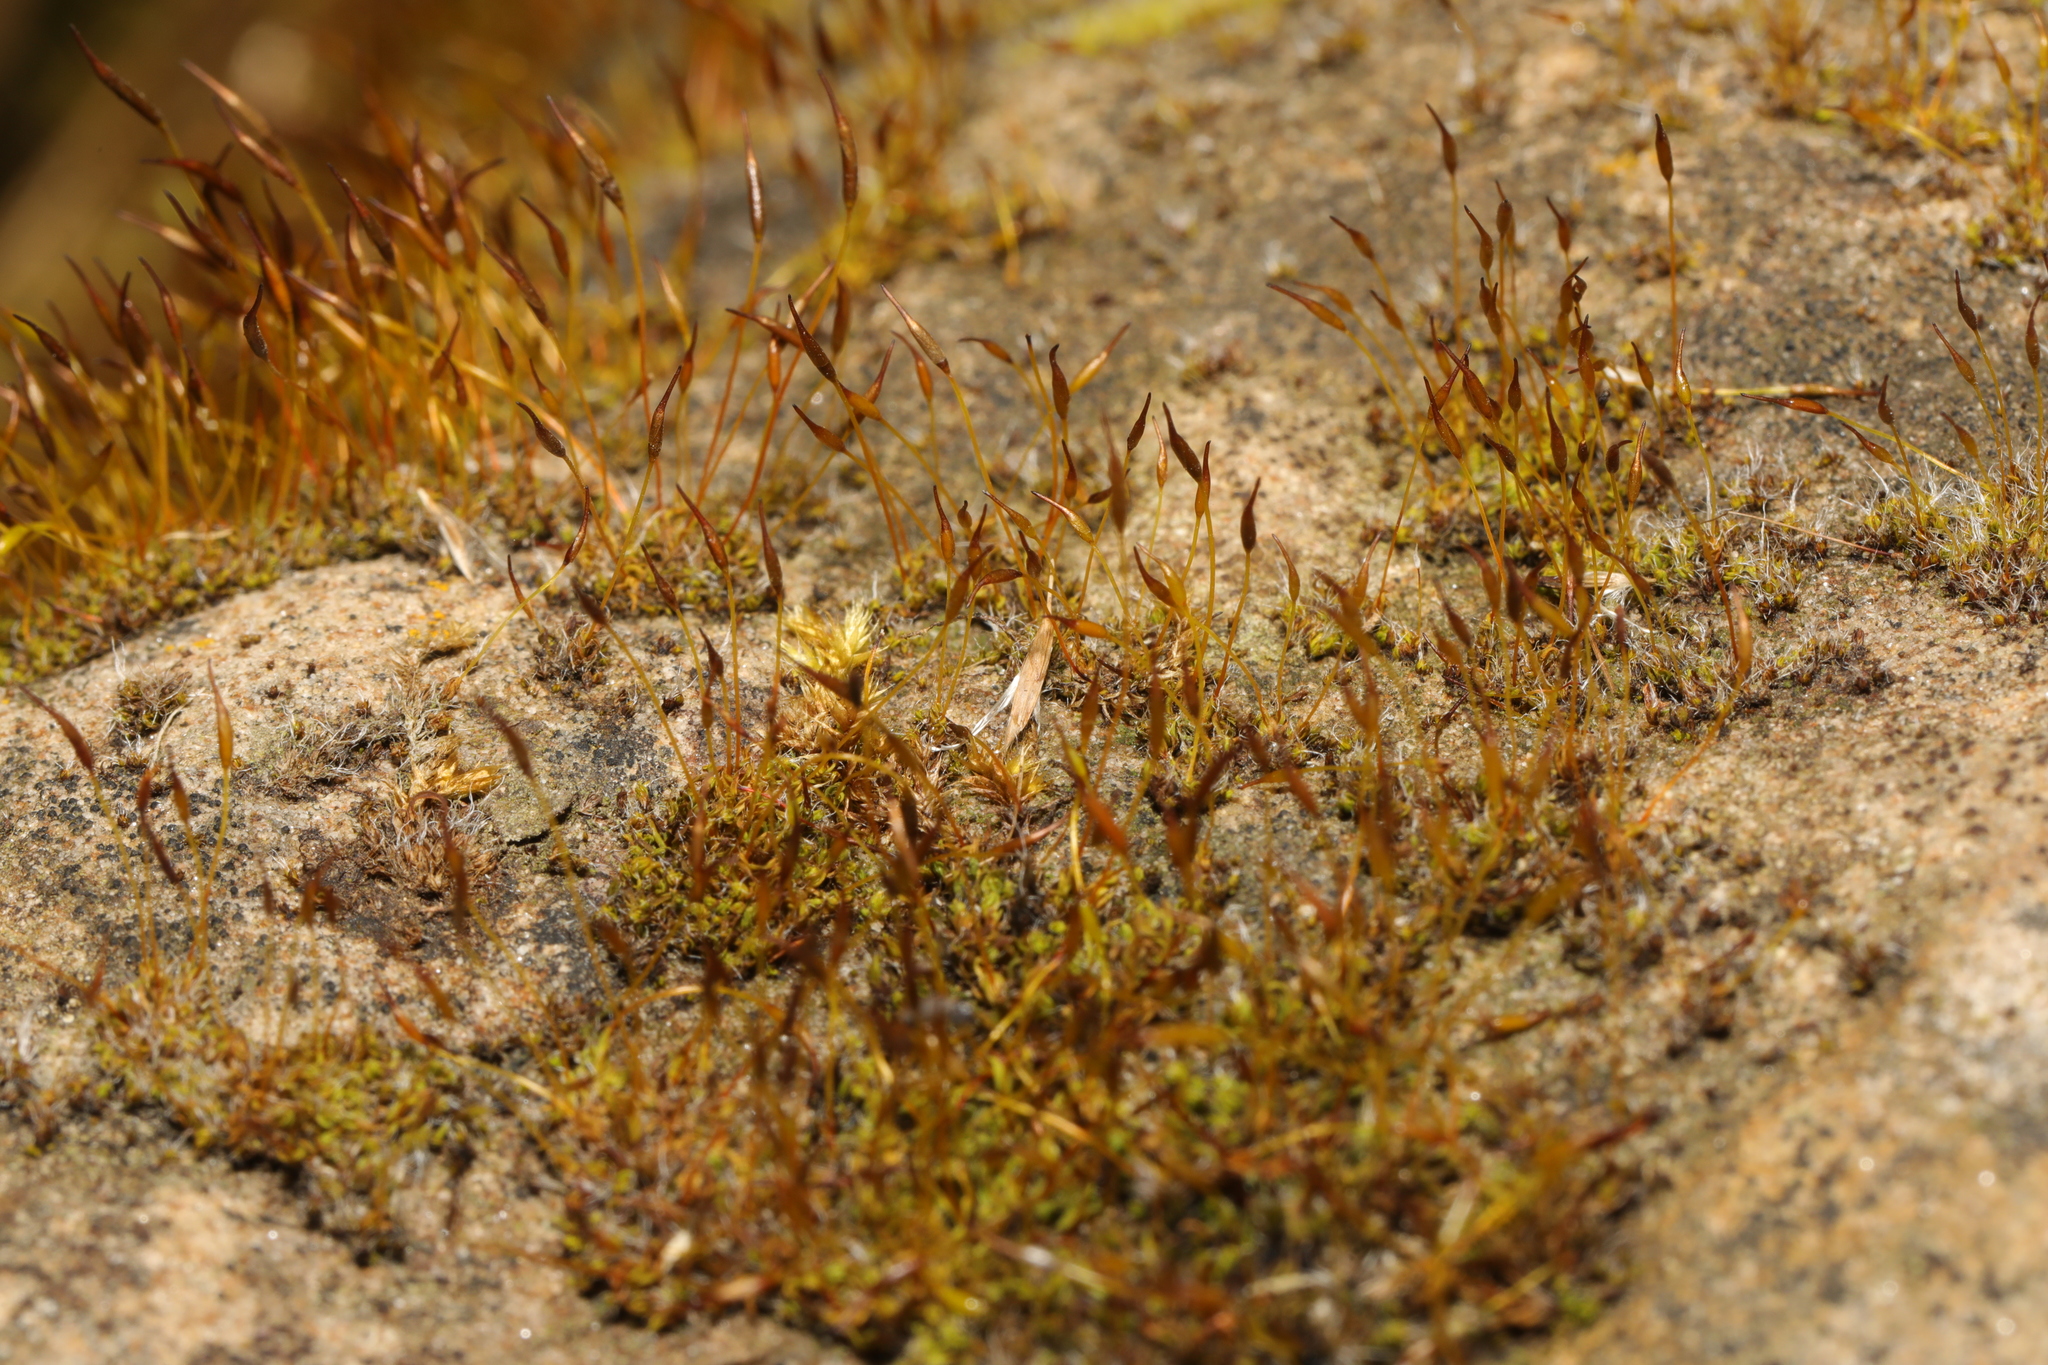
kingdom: Plantae
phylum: Bryophyta
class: Bryopsida
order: Pottiales
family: Pottiaceae
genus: Tortula
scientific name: Tortula muralis
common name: Wall screw-moss
